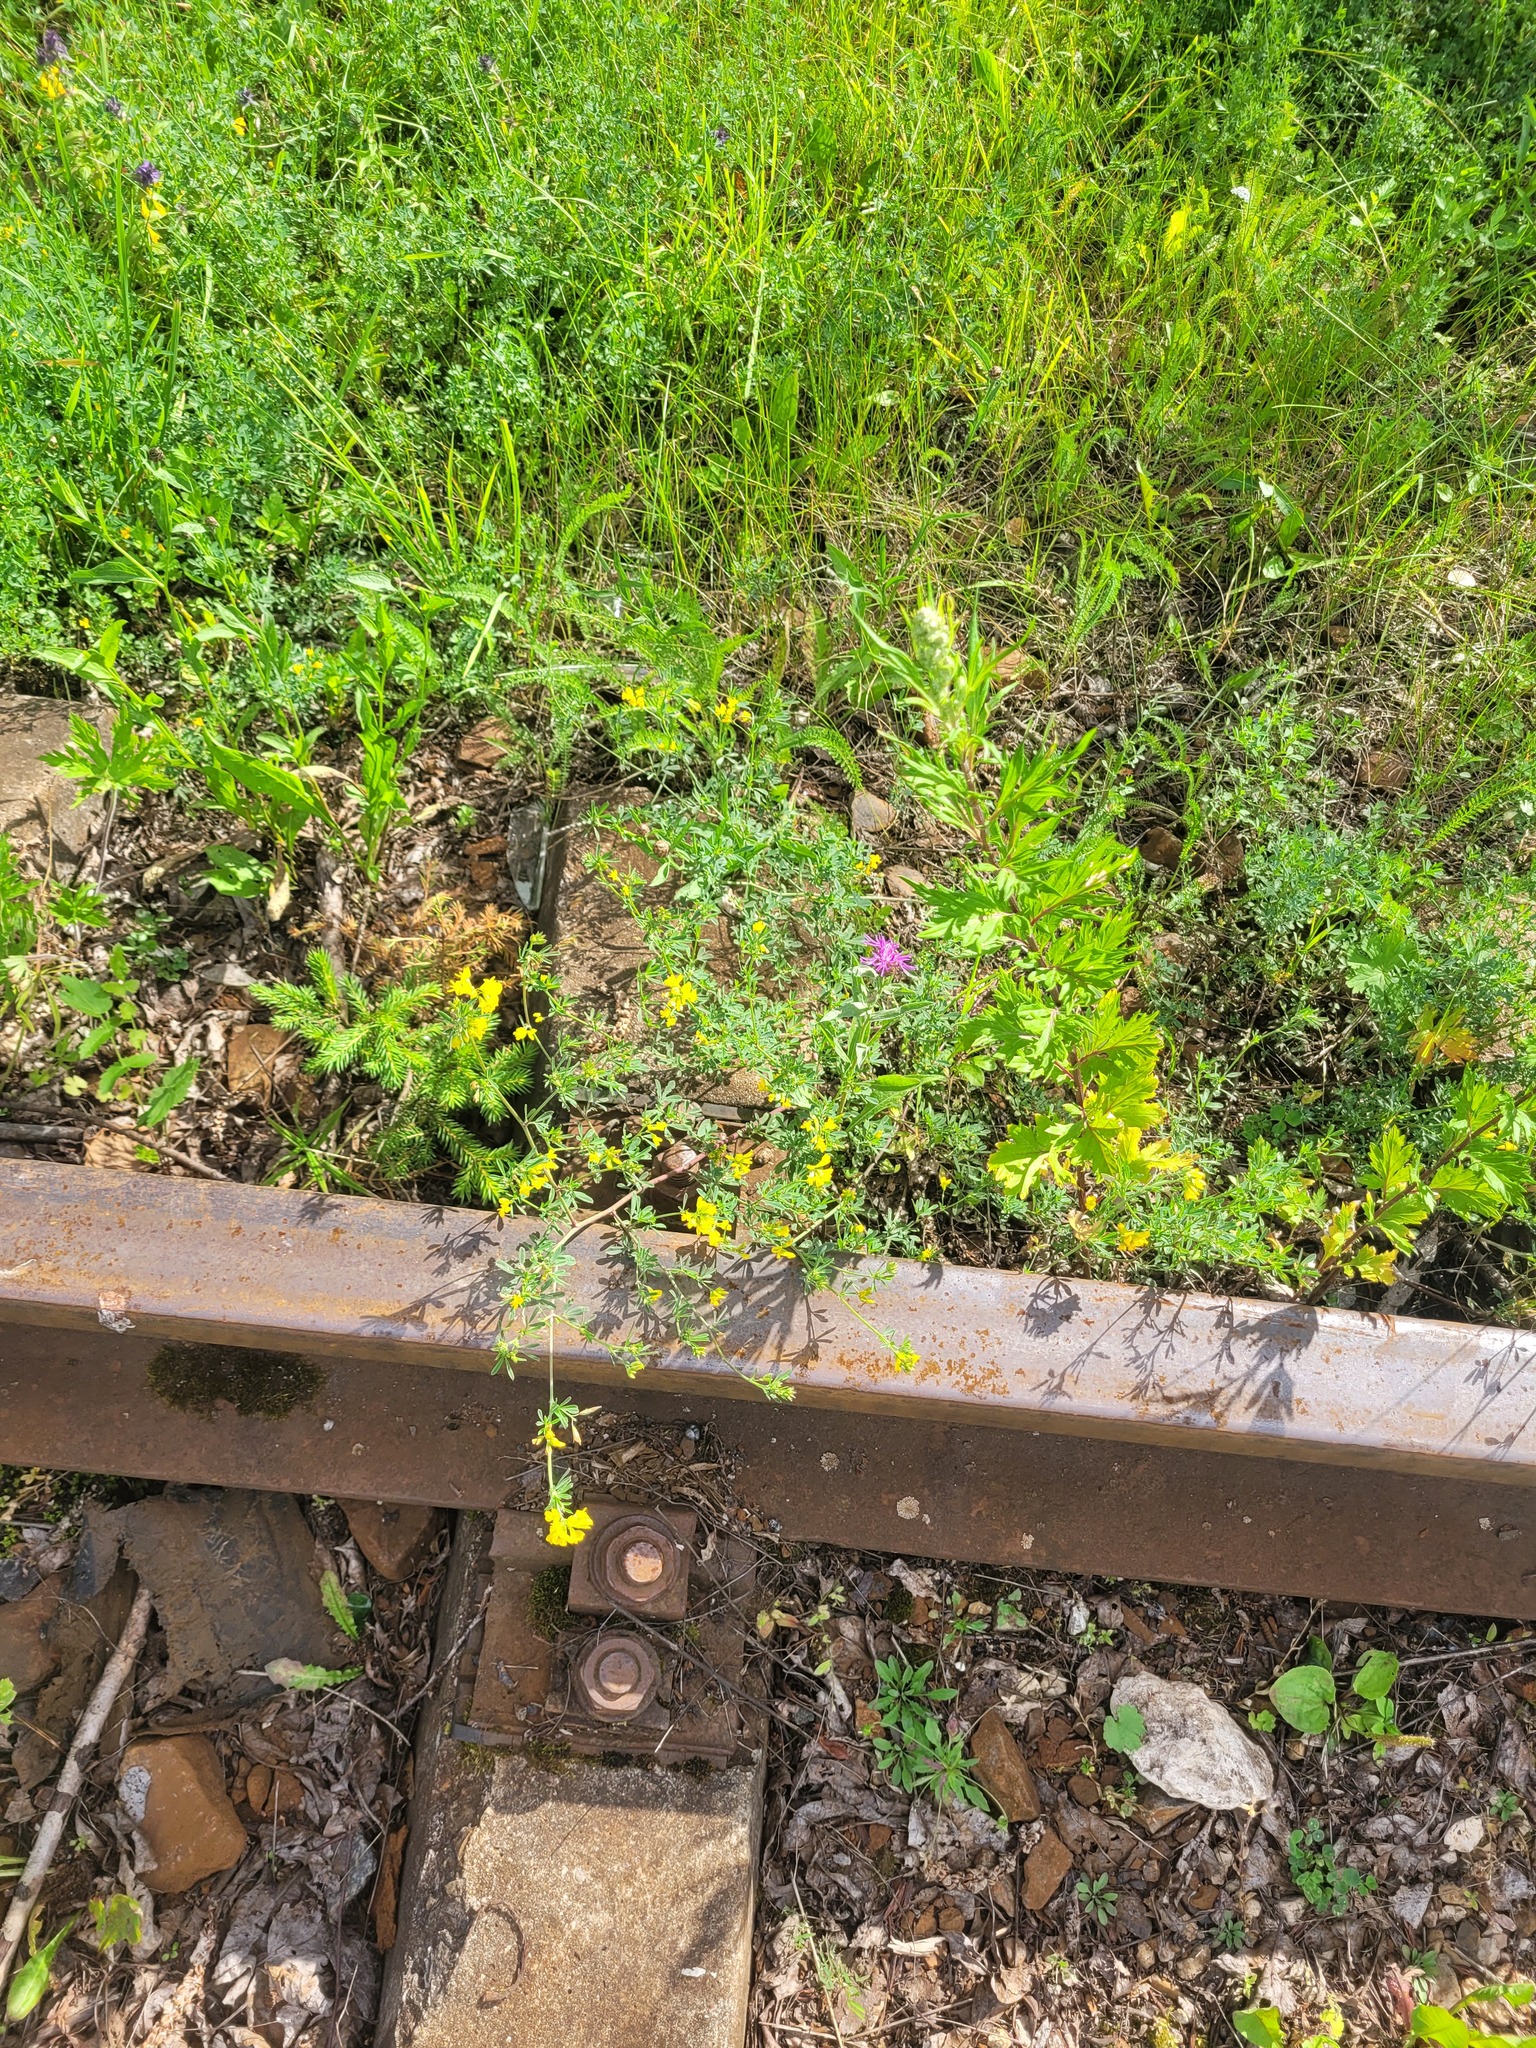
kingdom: Plantae
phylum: Tracheophyta
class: Magnoliopsida
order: Fabales
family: Fabaceae
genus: Medicago
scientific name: Medicago falcata
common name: Sickle medick
